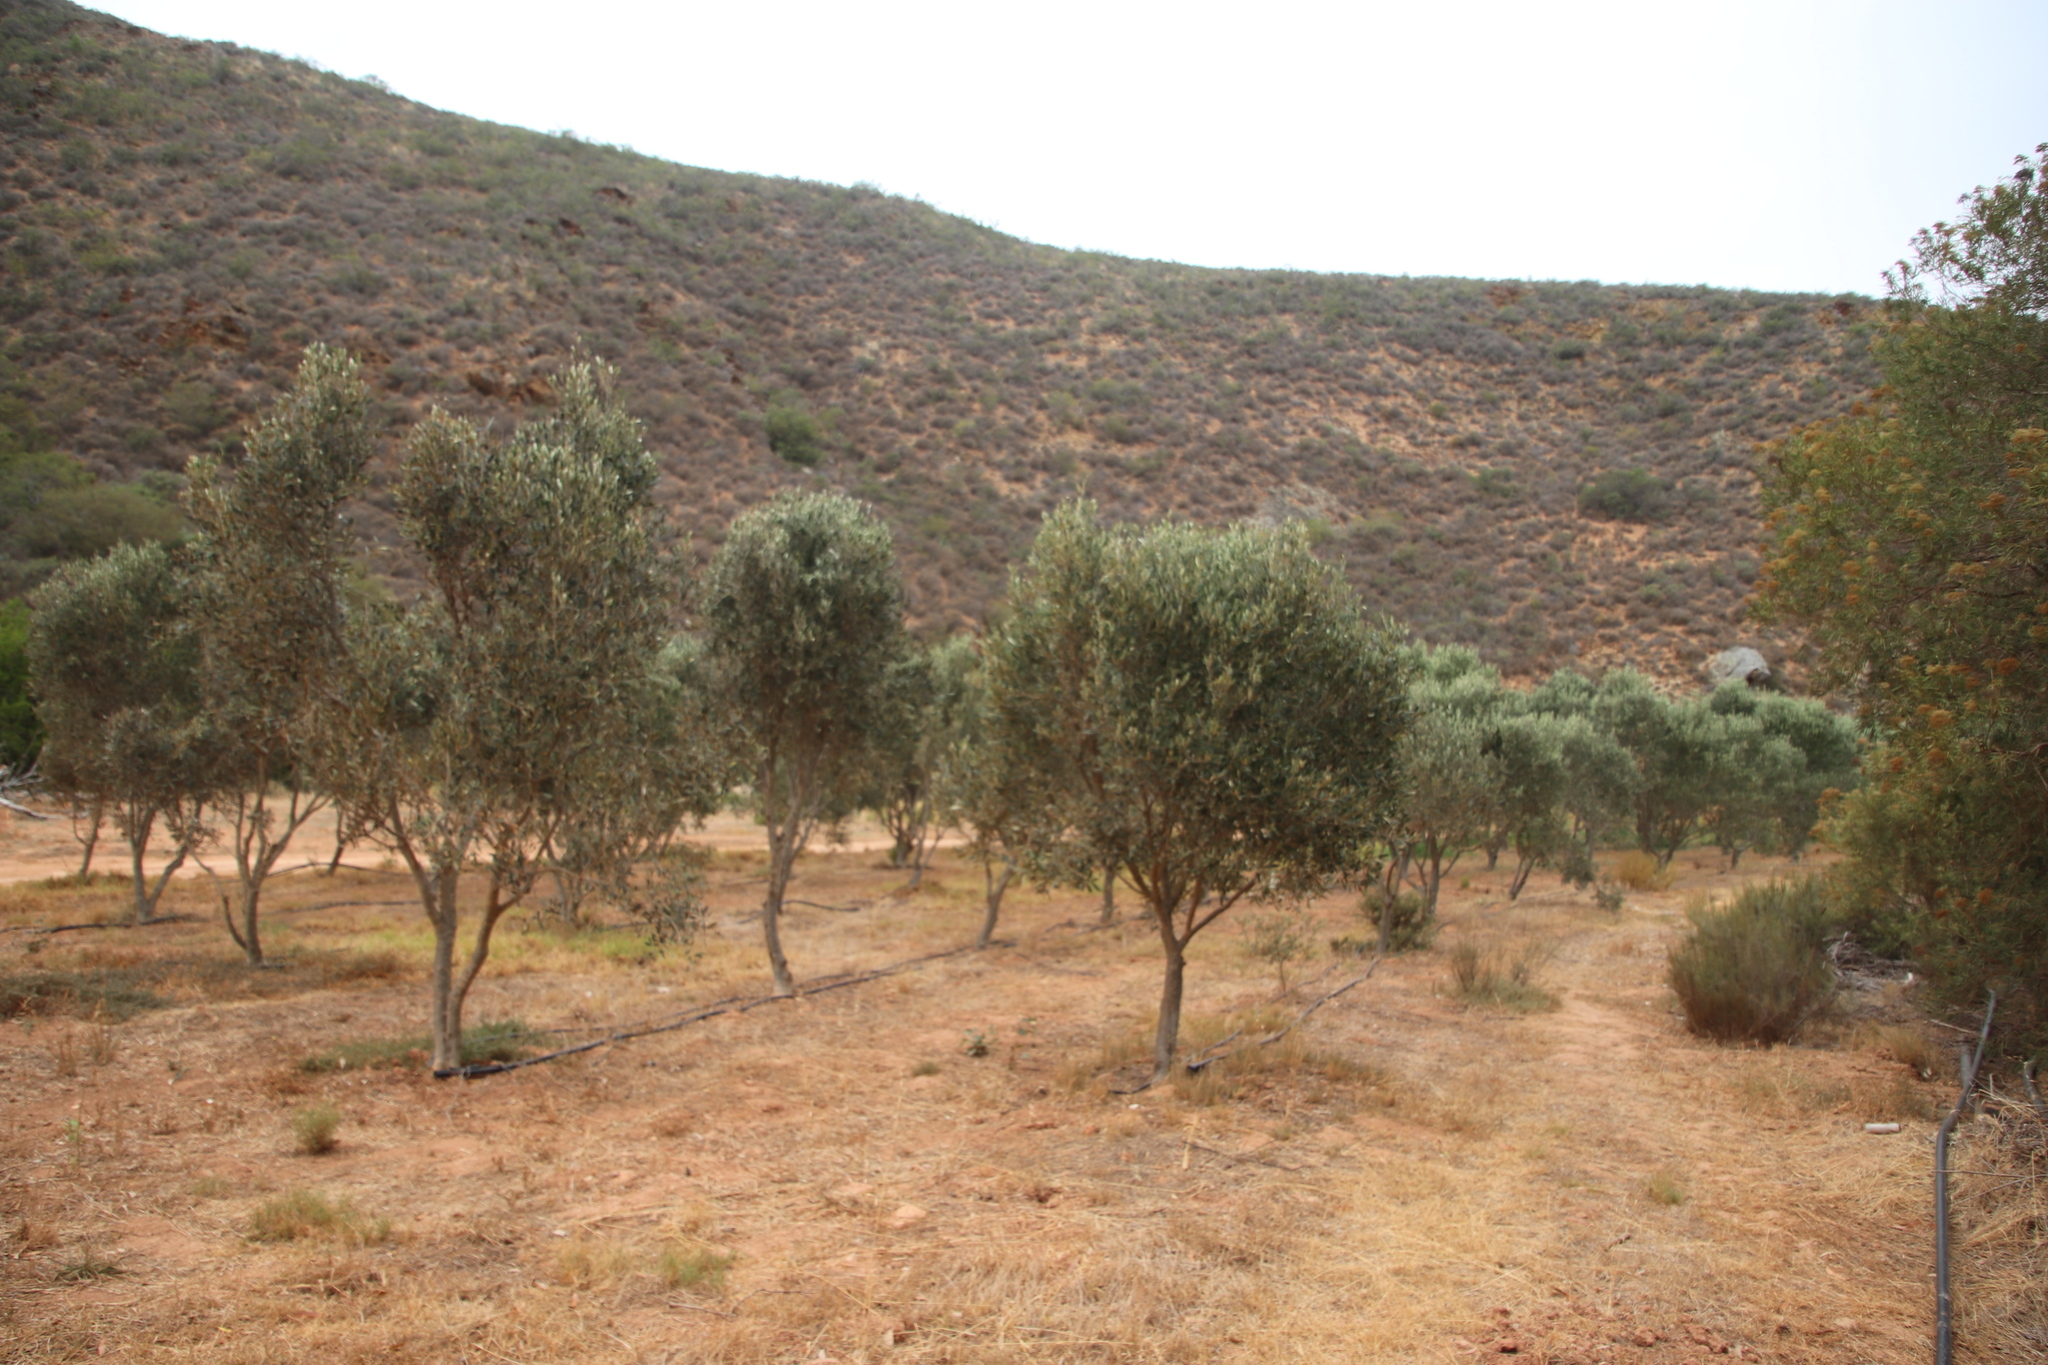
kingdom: Plantae
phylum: Tracheophyta
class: Magnoliopsida
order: Lamiales
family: Oleaceae
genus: Olea
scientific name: Olea europaea
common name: Olive
